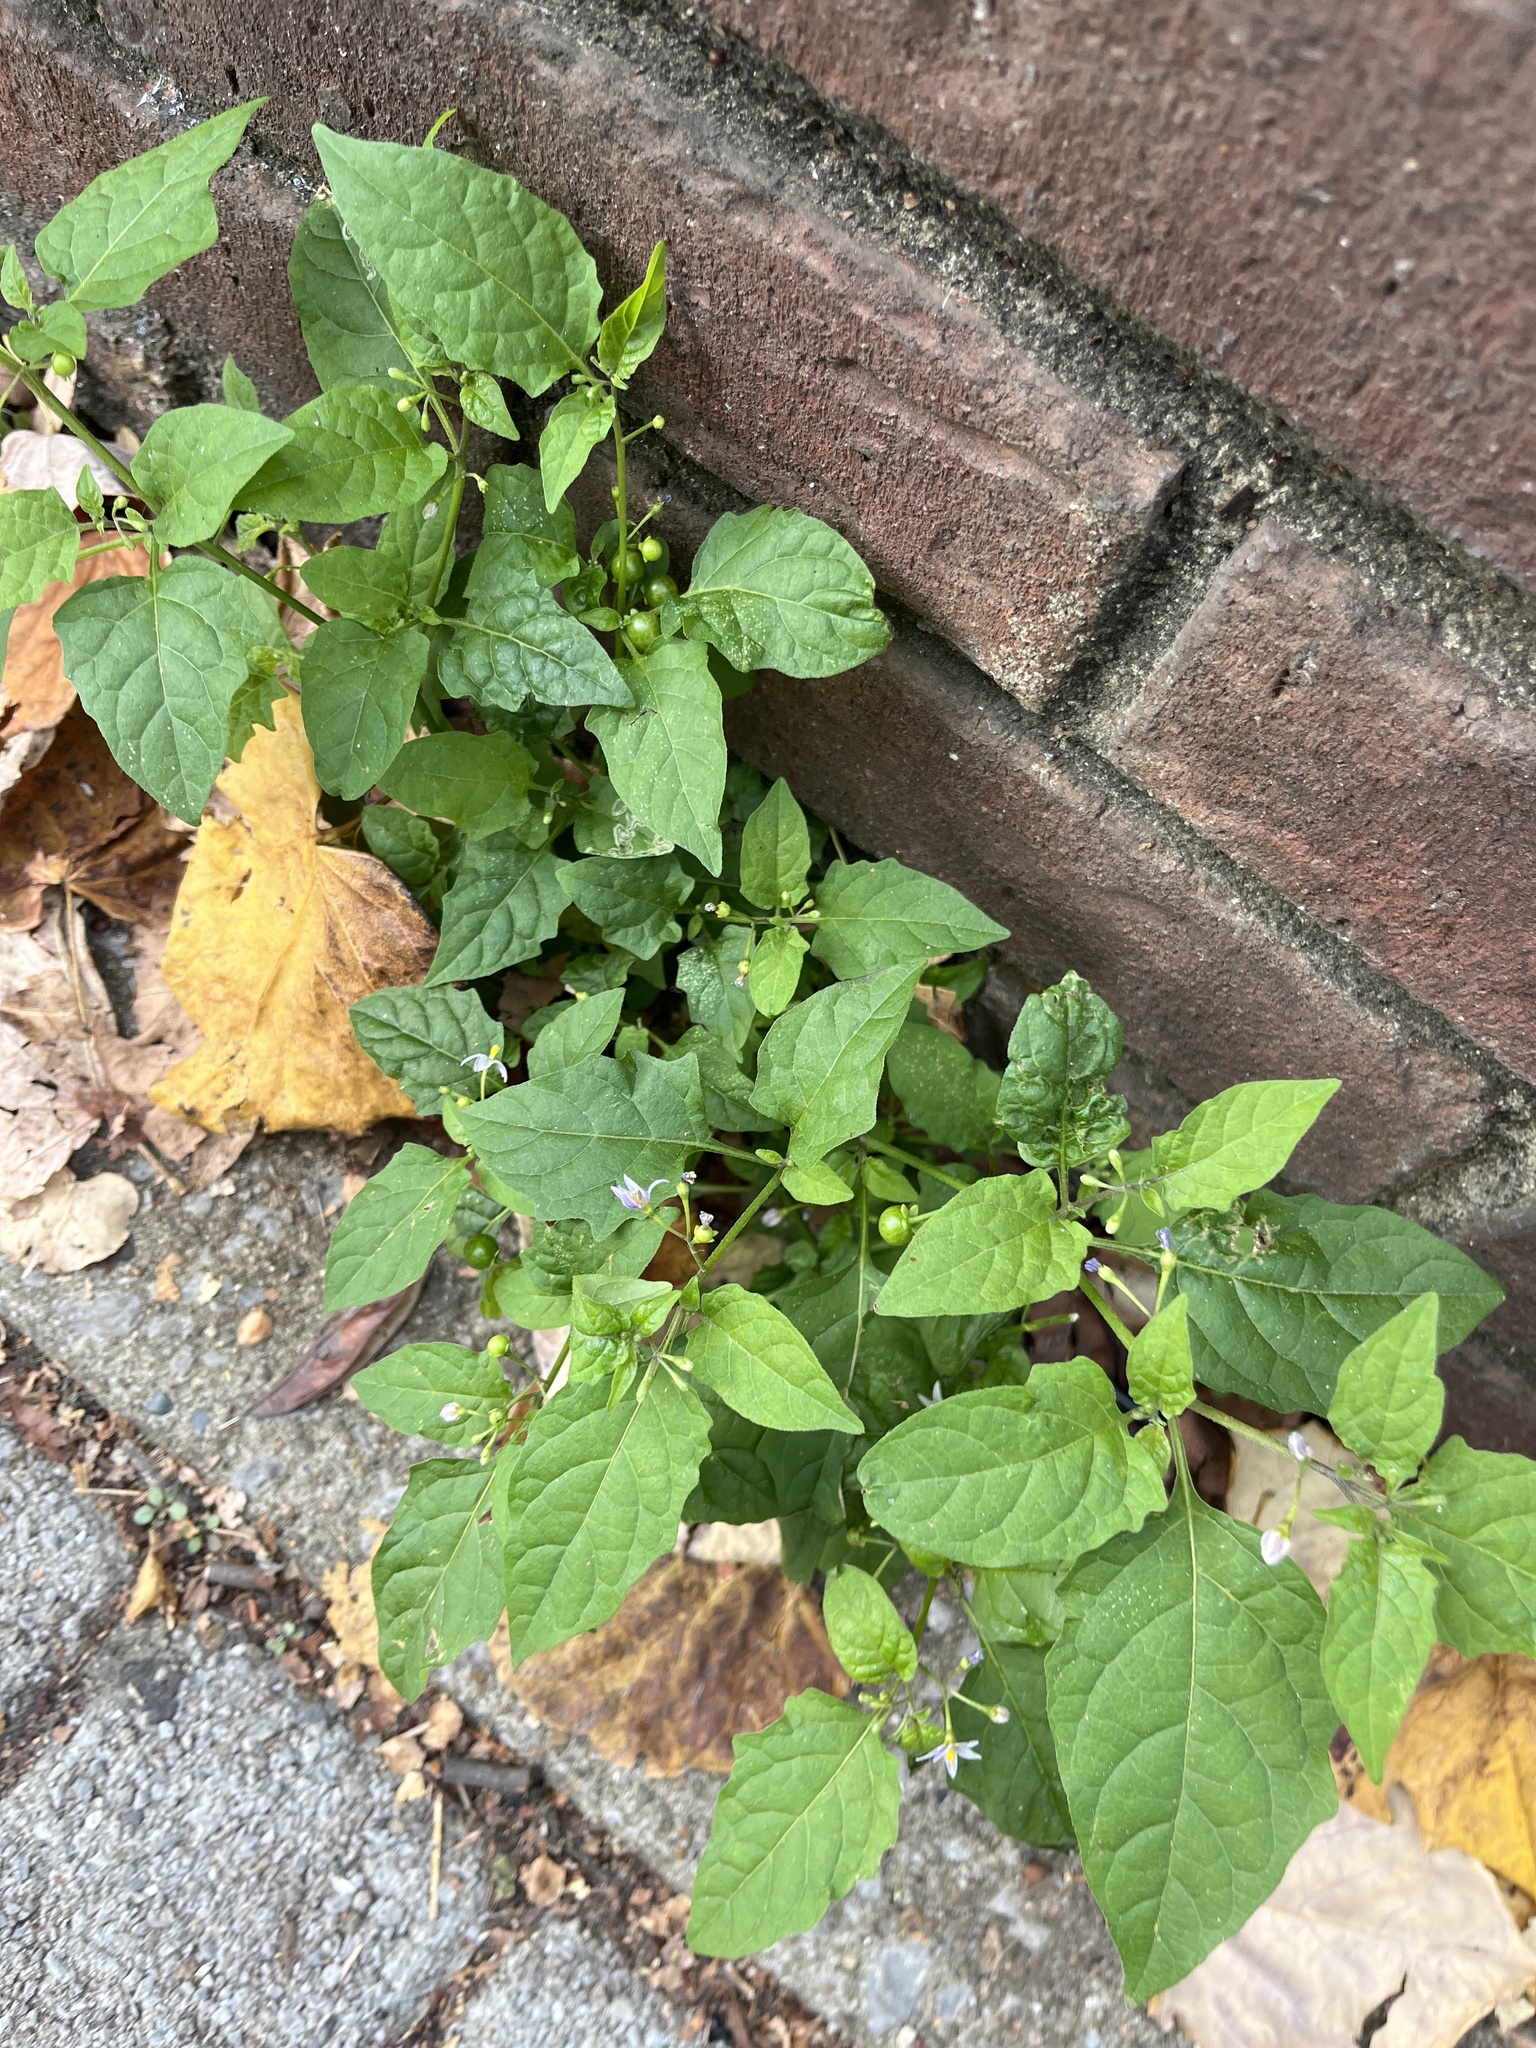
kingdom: Plantae
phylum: Tracheophyta
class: Magnoliopsida
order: Solanales
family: Solanaceae
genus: Solanum
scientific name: Solanum emulans
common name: Eastern black nightshade
